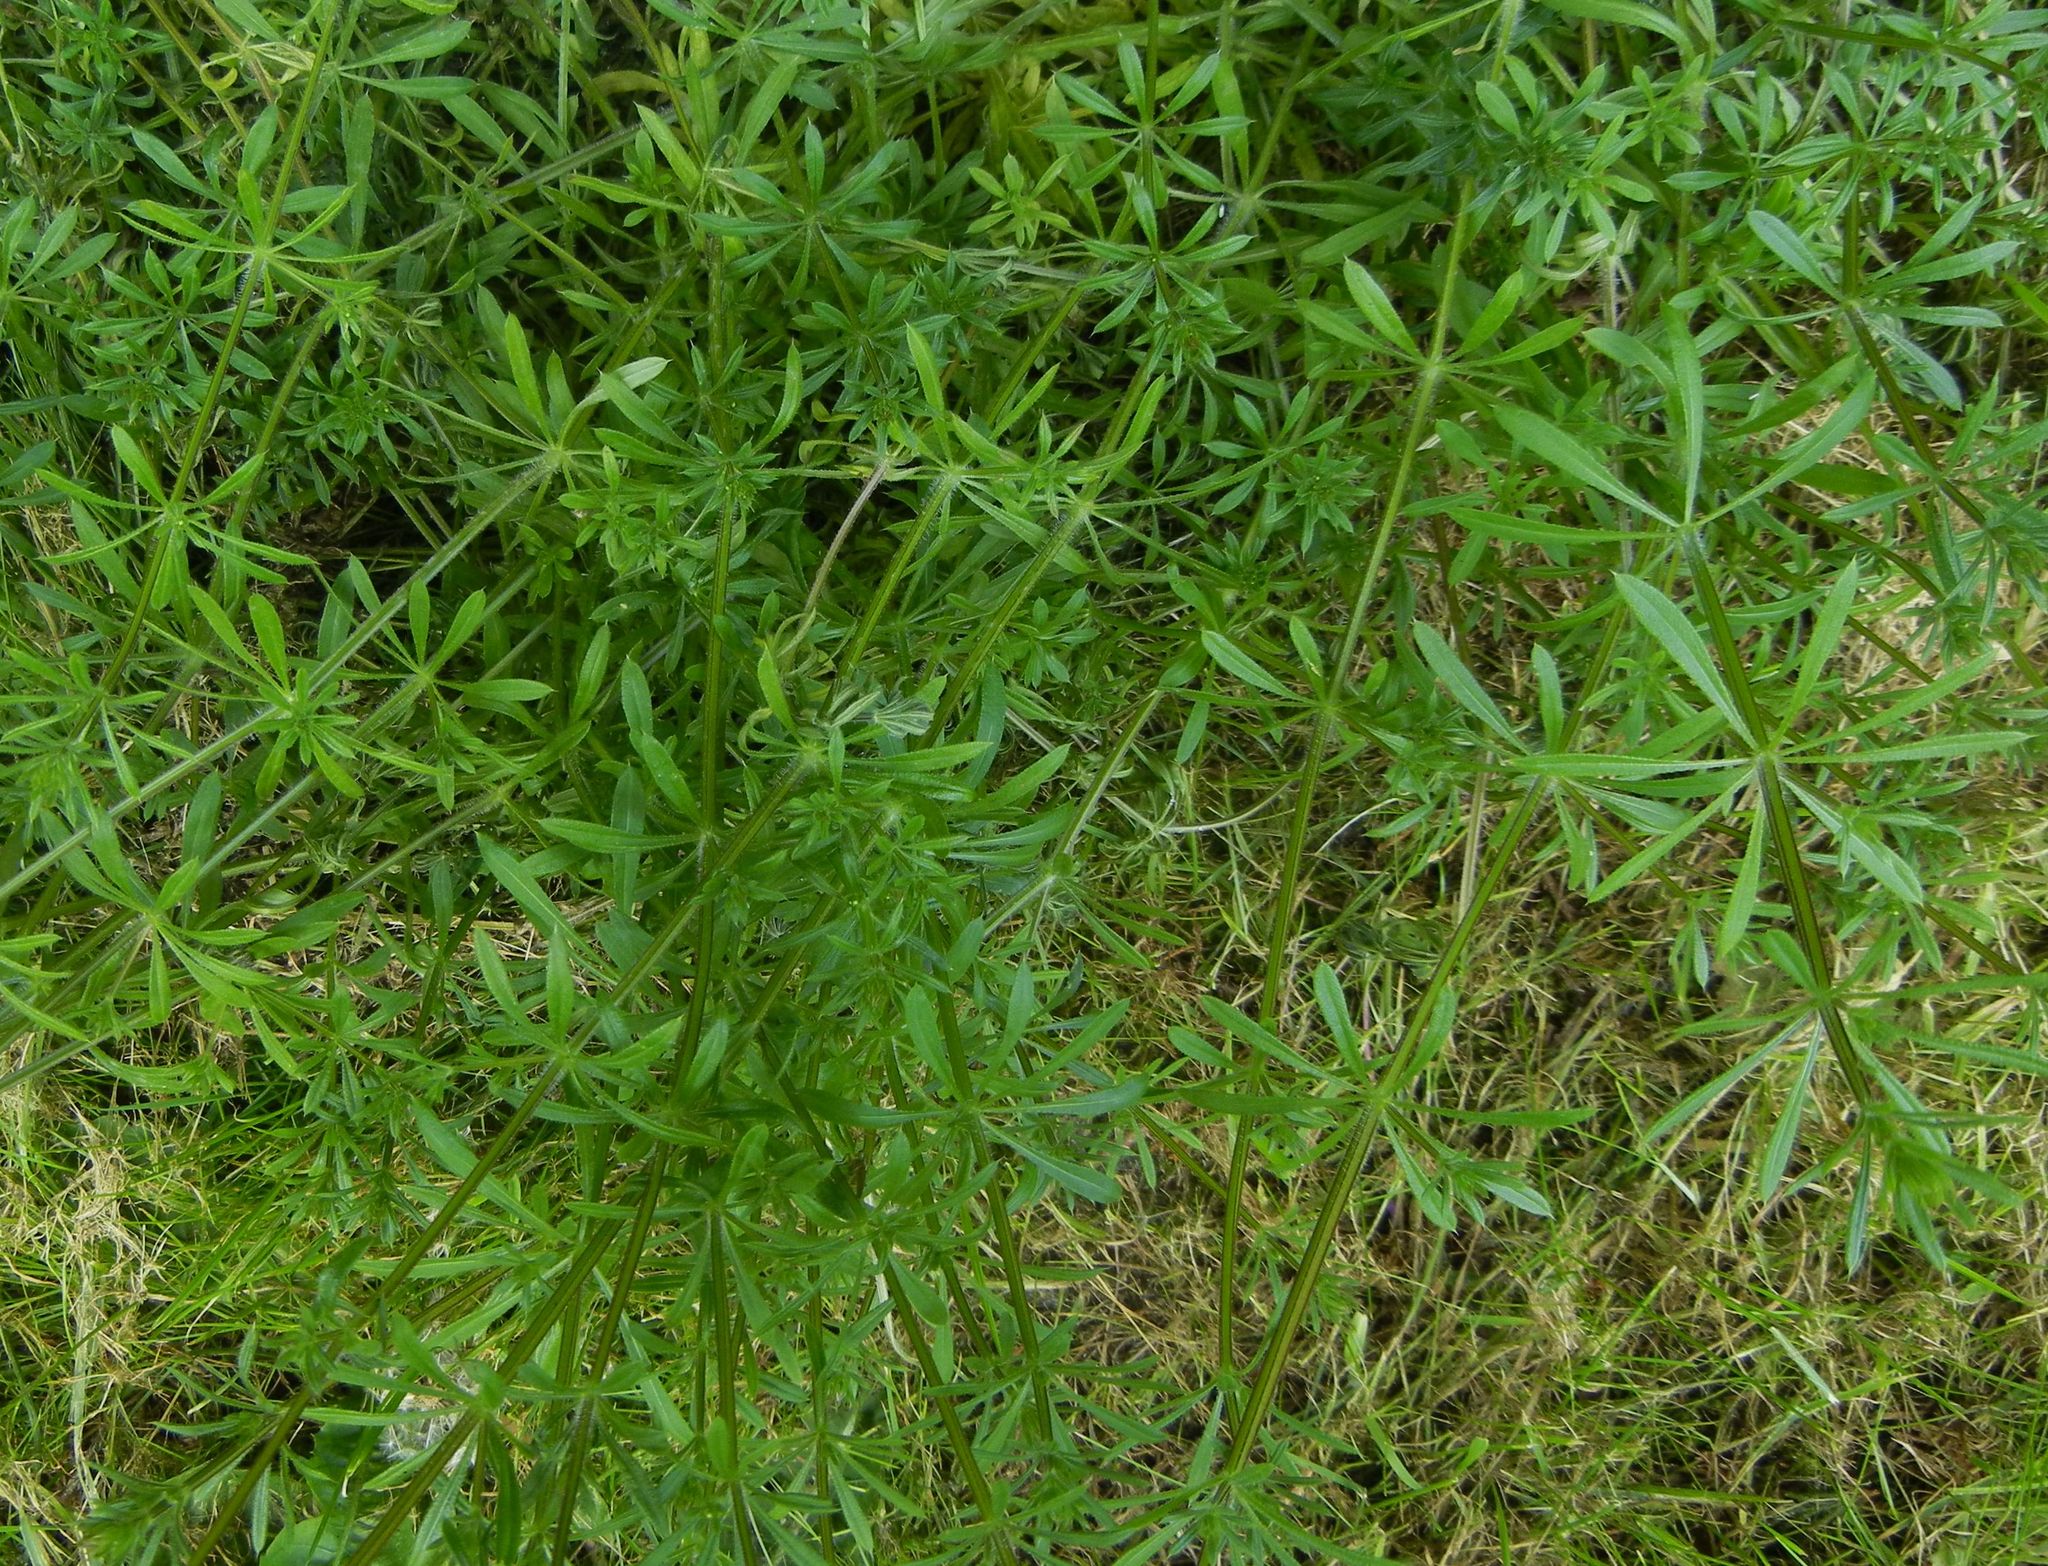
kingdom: Plantae
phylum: Tracheophyta
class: Magnoliopsida
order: Gentianales
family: Rubiaceae
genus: Galium
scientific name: Galium aparine
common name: Cleavers
